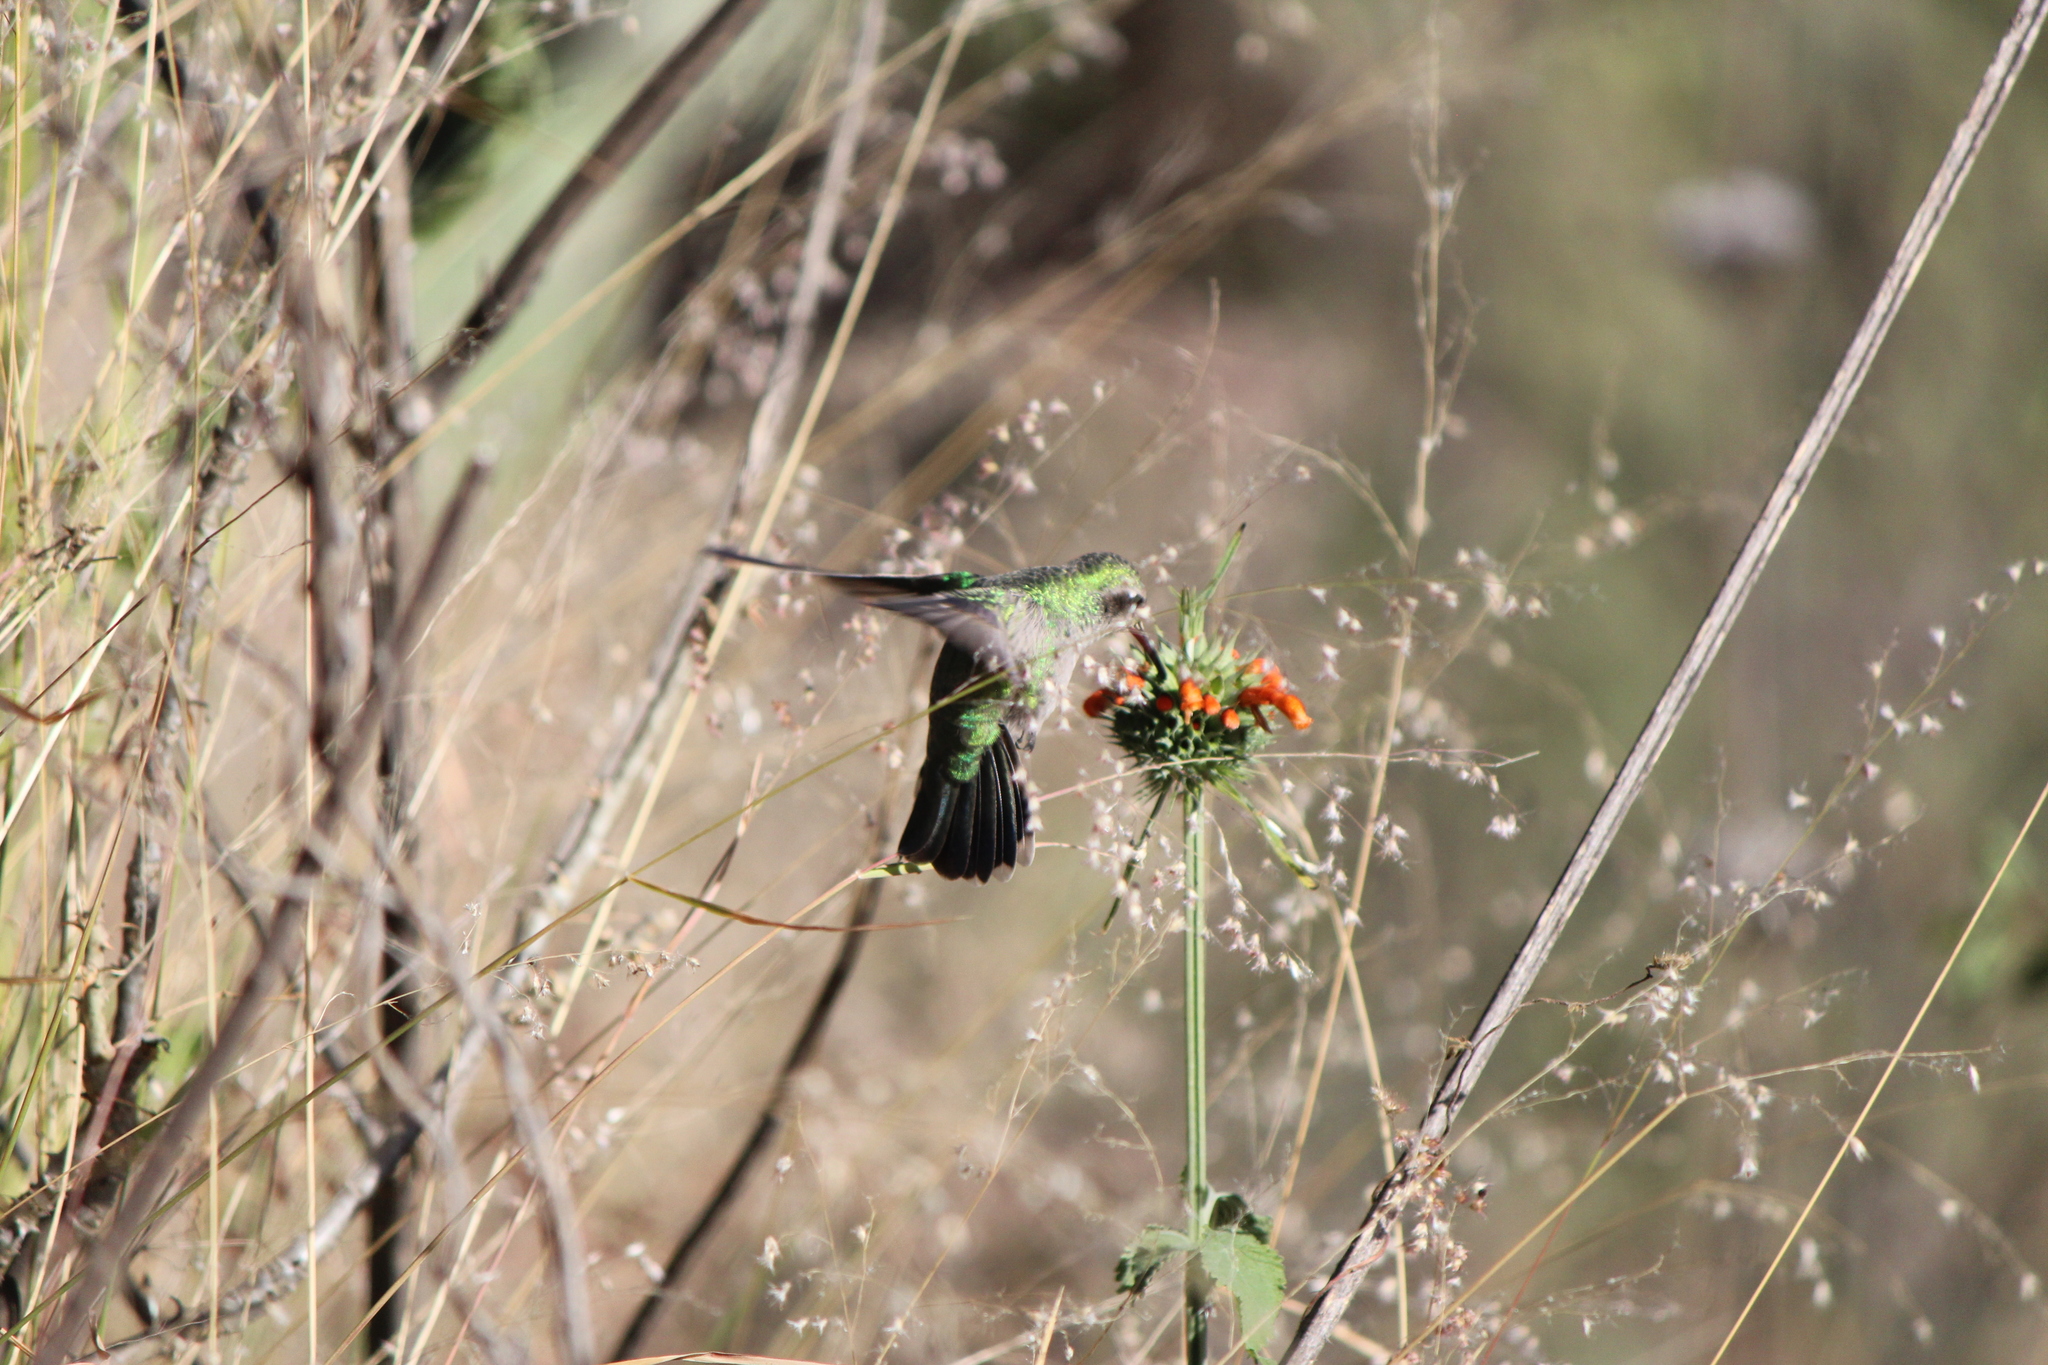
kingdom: Animalia
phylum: Chordata
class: Aves
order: Apodiformes
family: Trochilidae
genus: Cynanthus
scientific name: Cynanthus latirostris
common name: Broad-billed hummingbird
